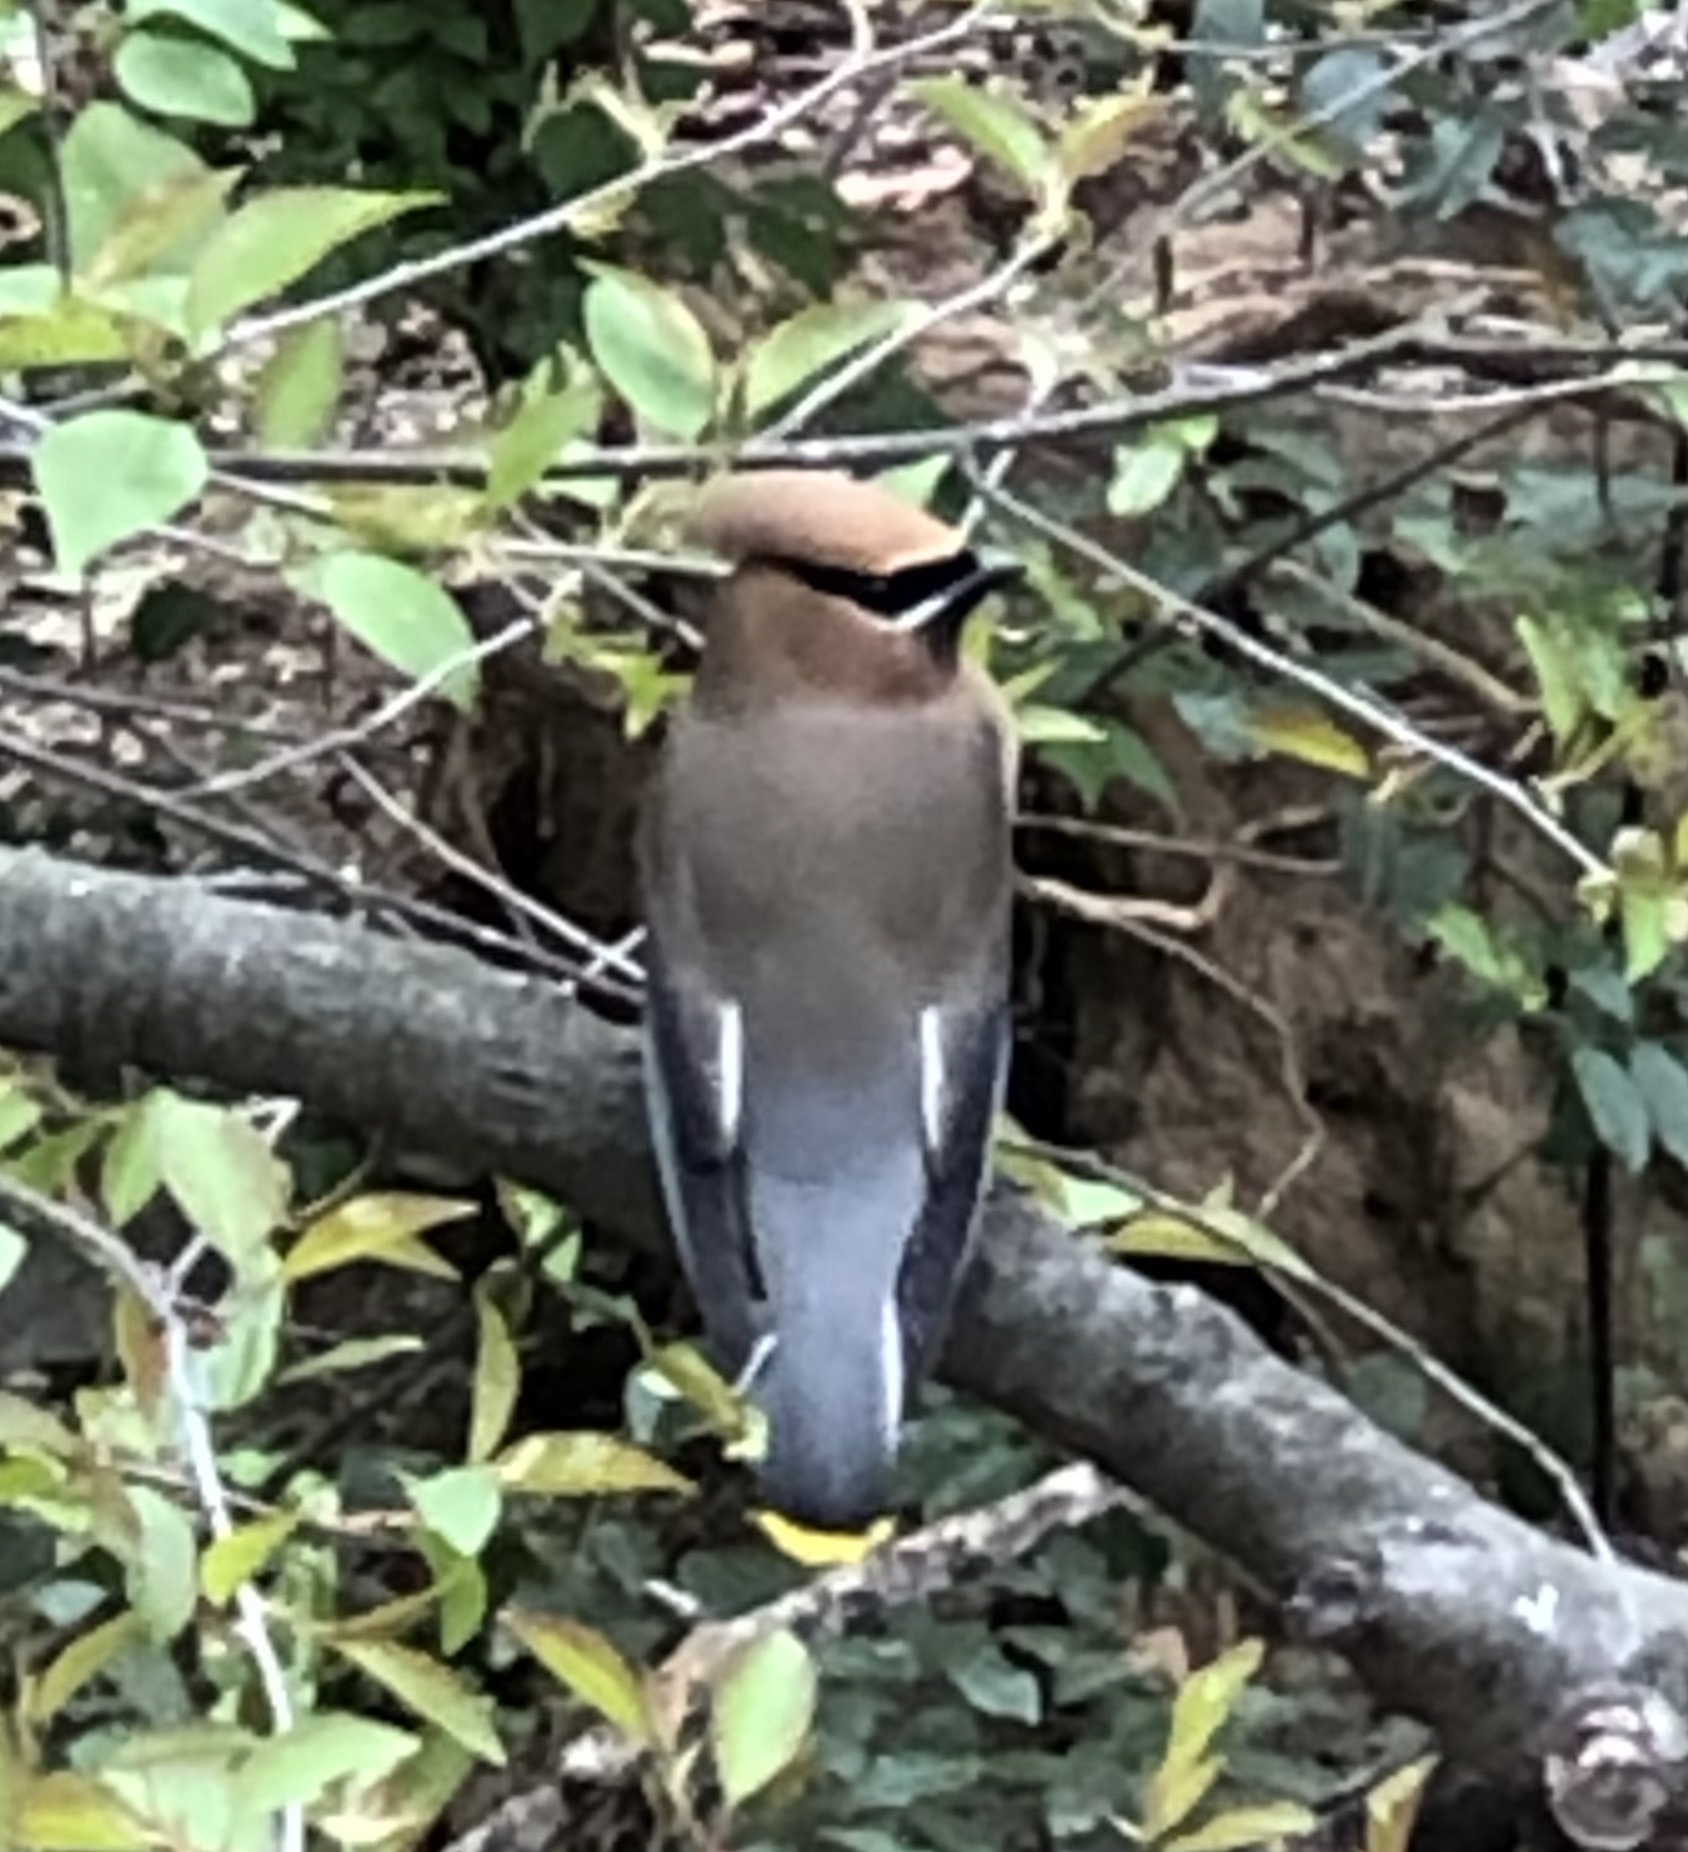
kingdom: Animalia
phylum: Chordata
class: Aves
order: Passeriformes
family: Bombycillidae
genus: Bombycilla
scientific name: Bombycilla cedrorum
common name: Cedar waxwing
